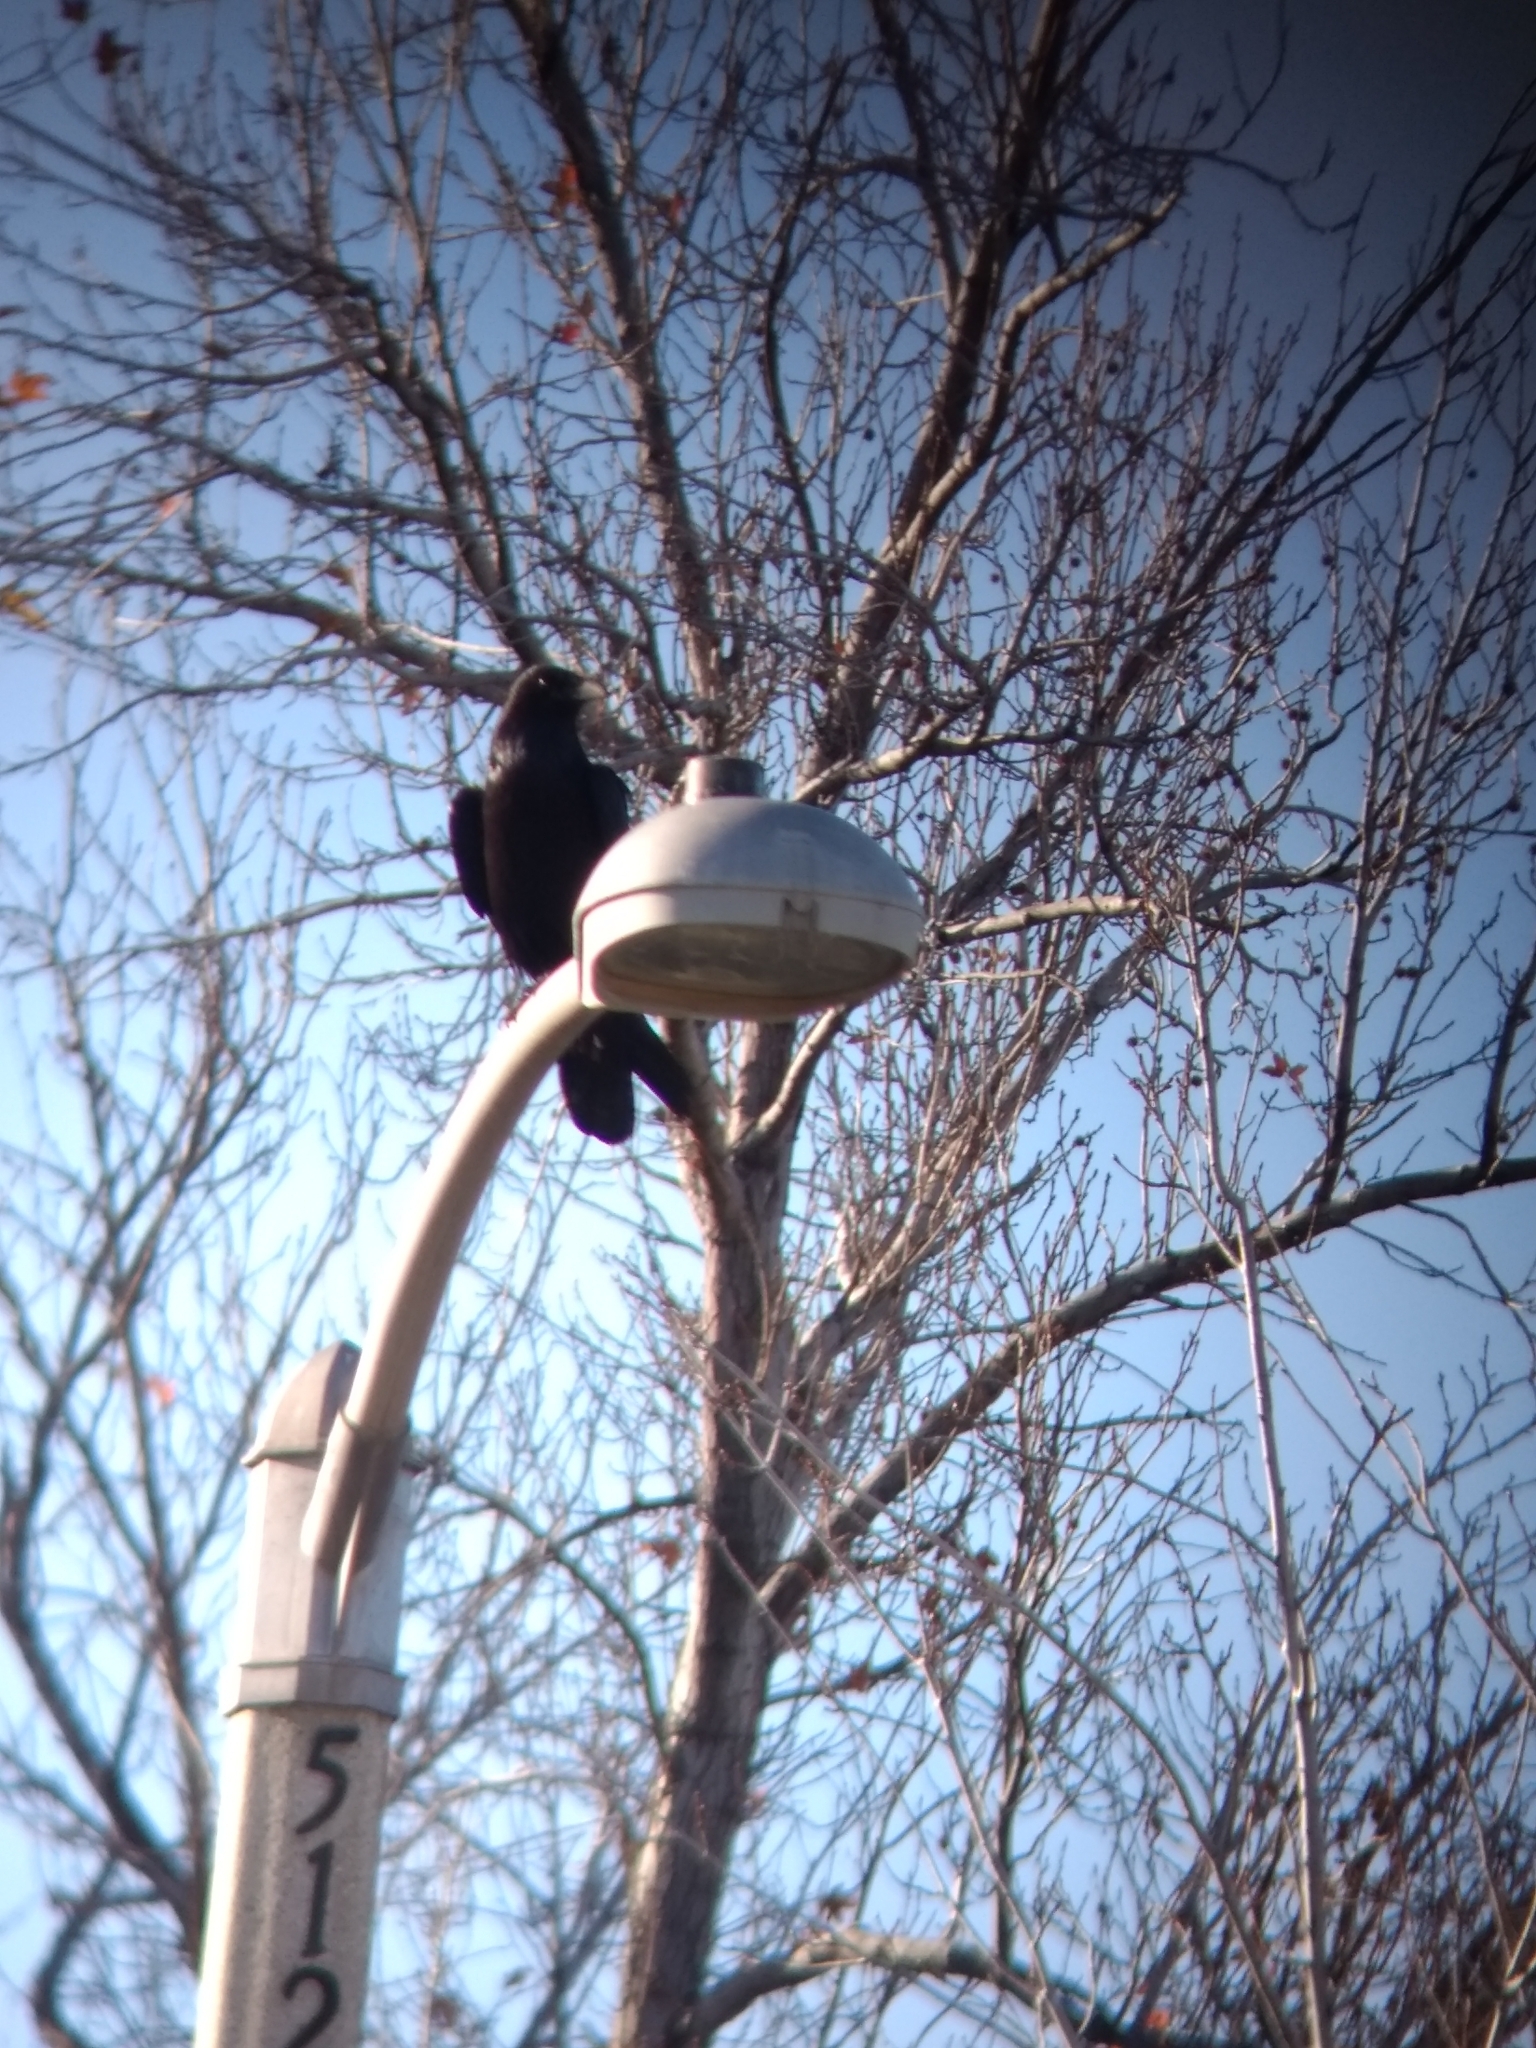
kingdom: Animalia
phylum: Chordata
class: Aves
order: Passeriformes
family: Corvidae
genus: Corvus
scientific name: Corvus brachyrhynchos
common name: American crow
